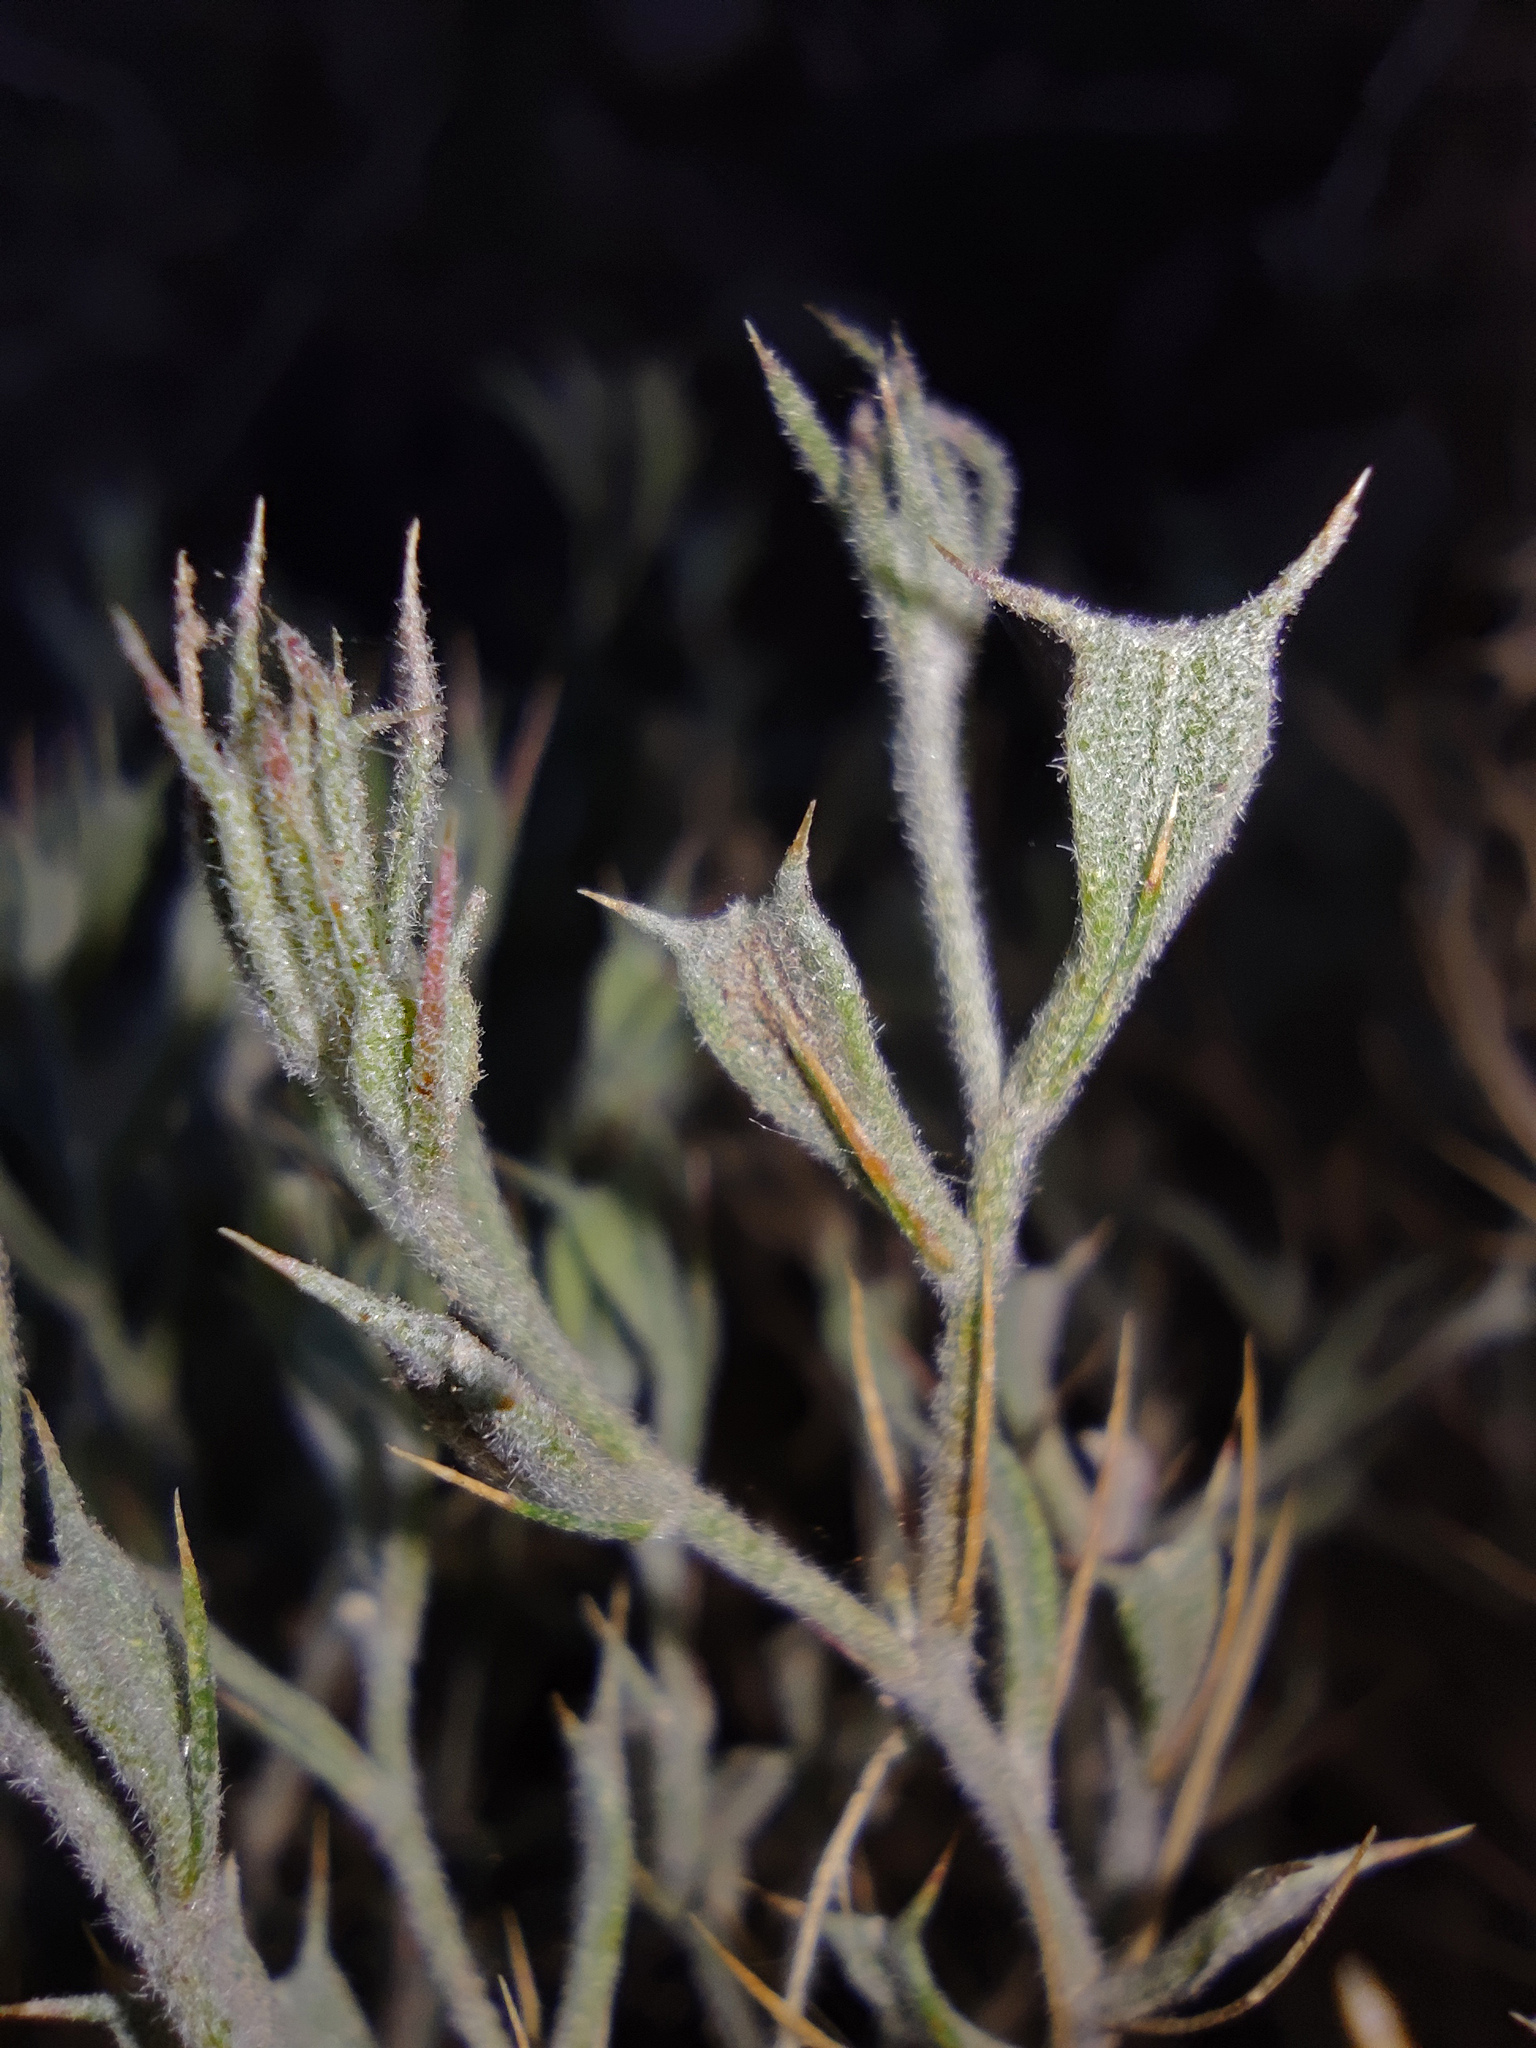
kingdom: Plantae
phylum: Tracheophyta
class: Magnoliopsida
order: Caryophyllales
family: Amaranthaceae
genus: Ceratocarpus
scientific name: Ceratocarpus arenarius
